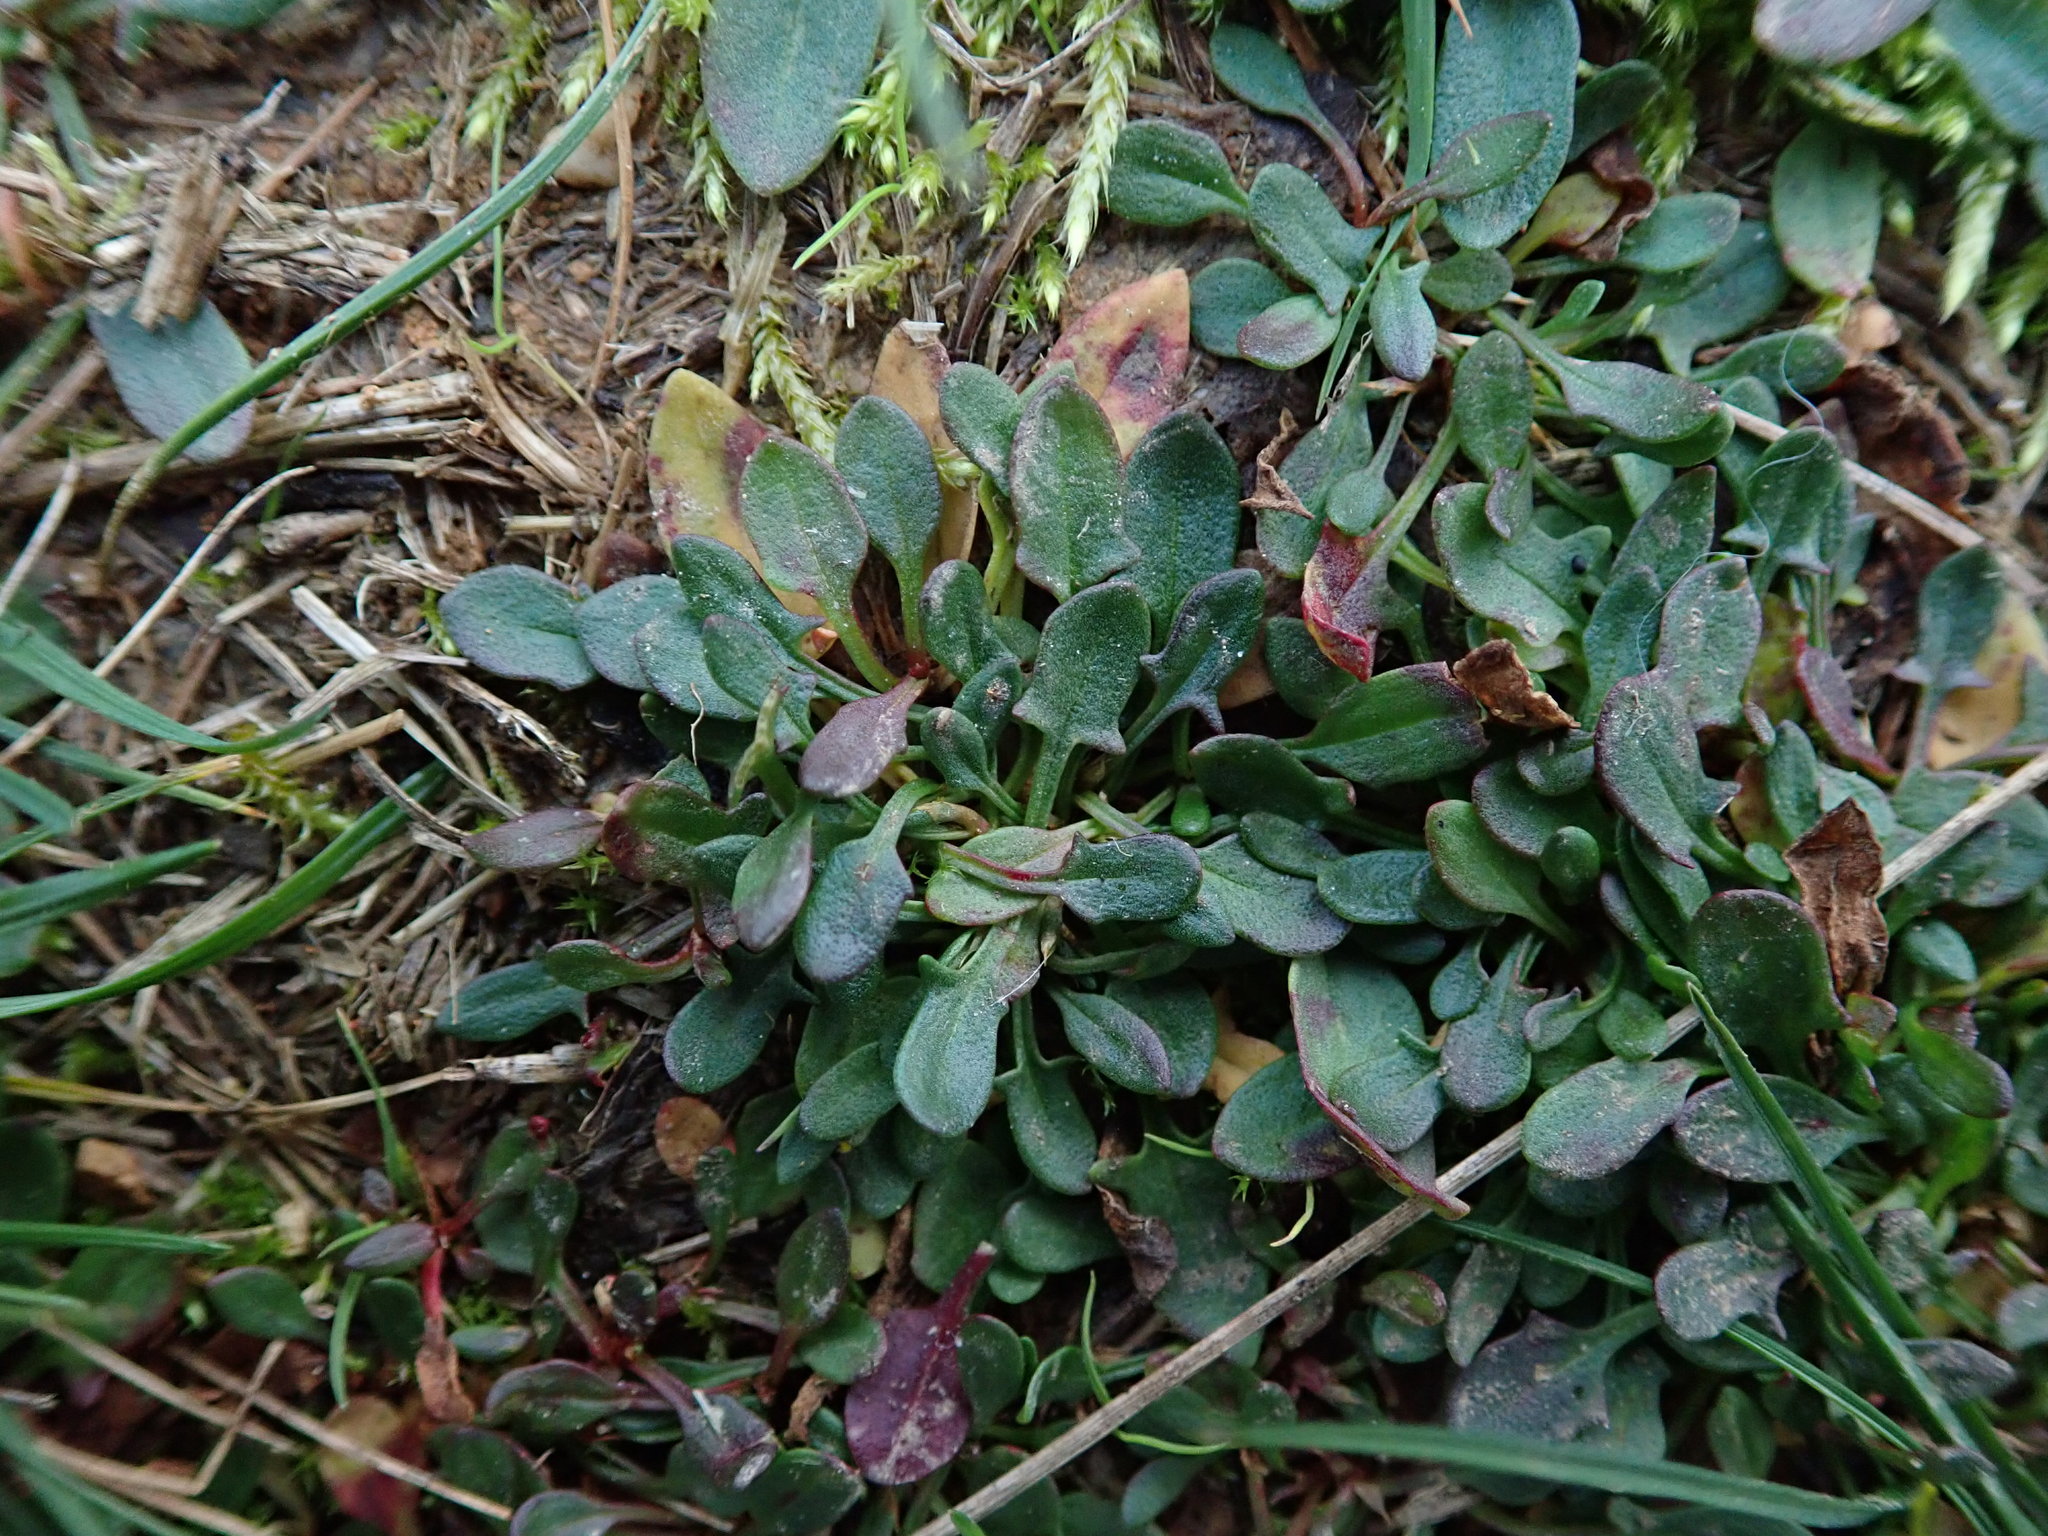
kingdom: Plantae
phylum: Tracheophyta
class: Magnoliopsida
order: Caryophyllales
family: Polygonaceae
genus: Rumex
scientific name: Rumex acetosella
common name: Common sheep sorrel
